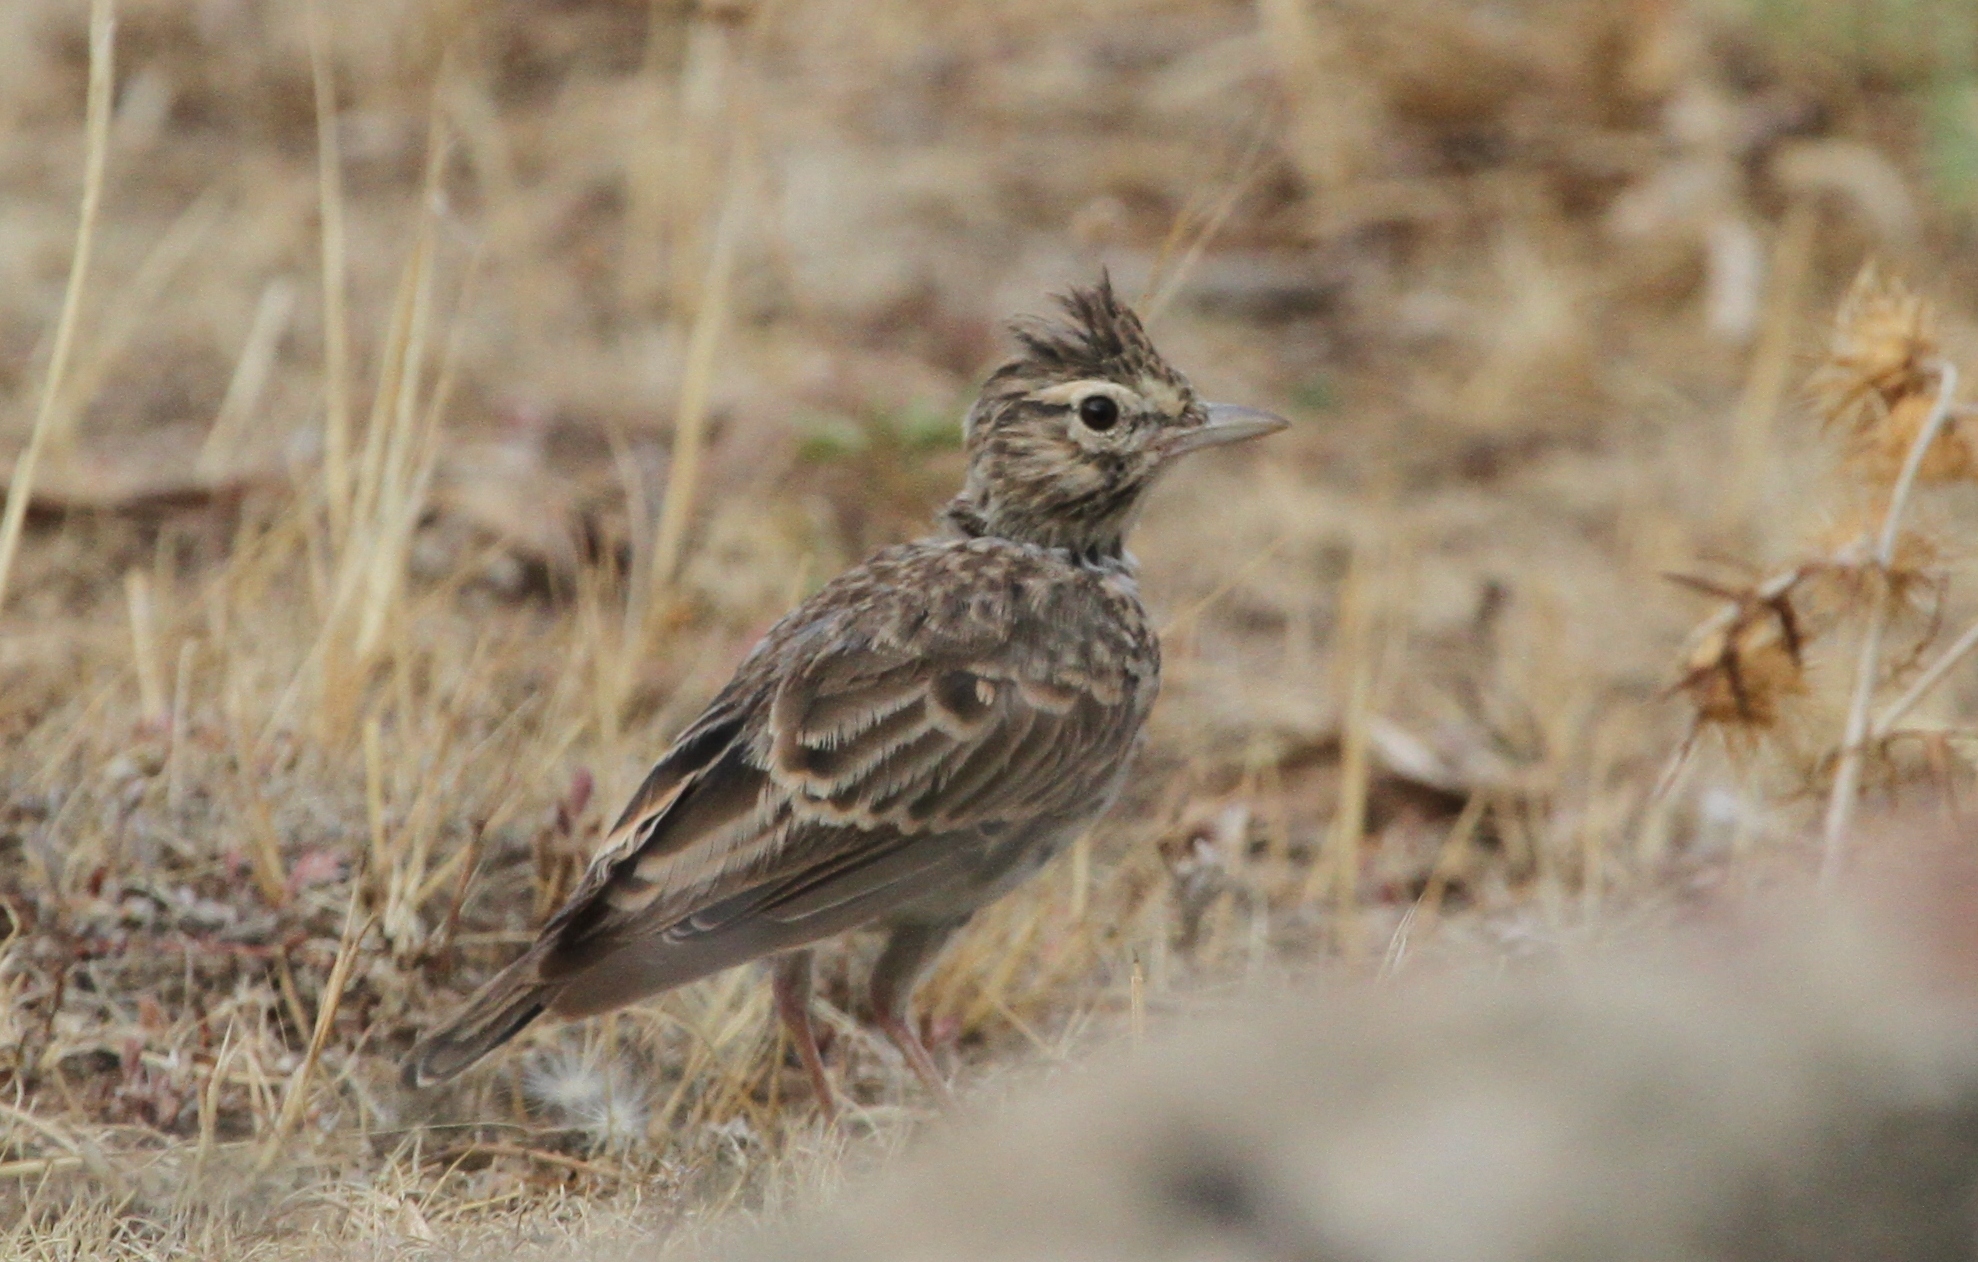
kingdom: Animalia
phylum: Chordata
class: Aves
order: Passeriformes
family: Alaudidae
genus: Galerida
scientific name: Galerida theklae
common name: Thekla lark
